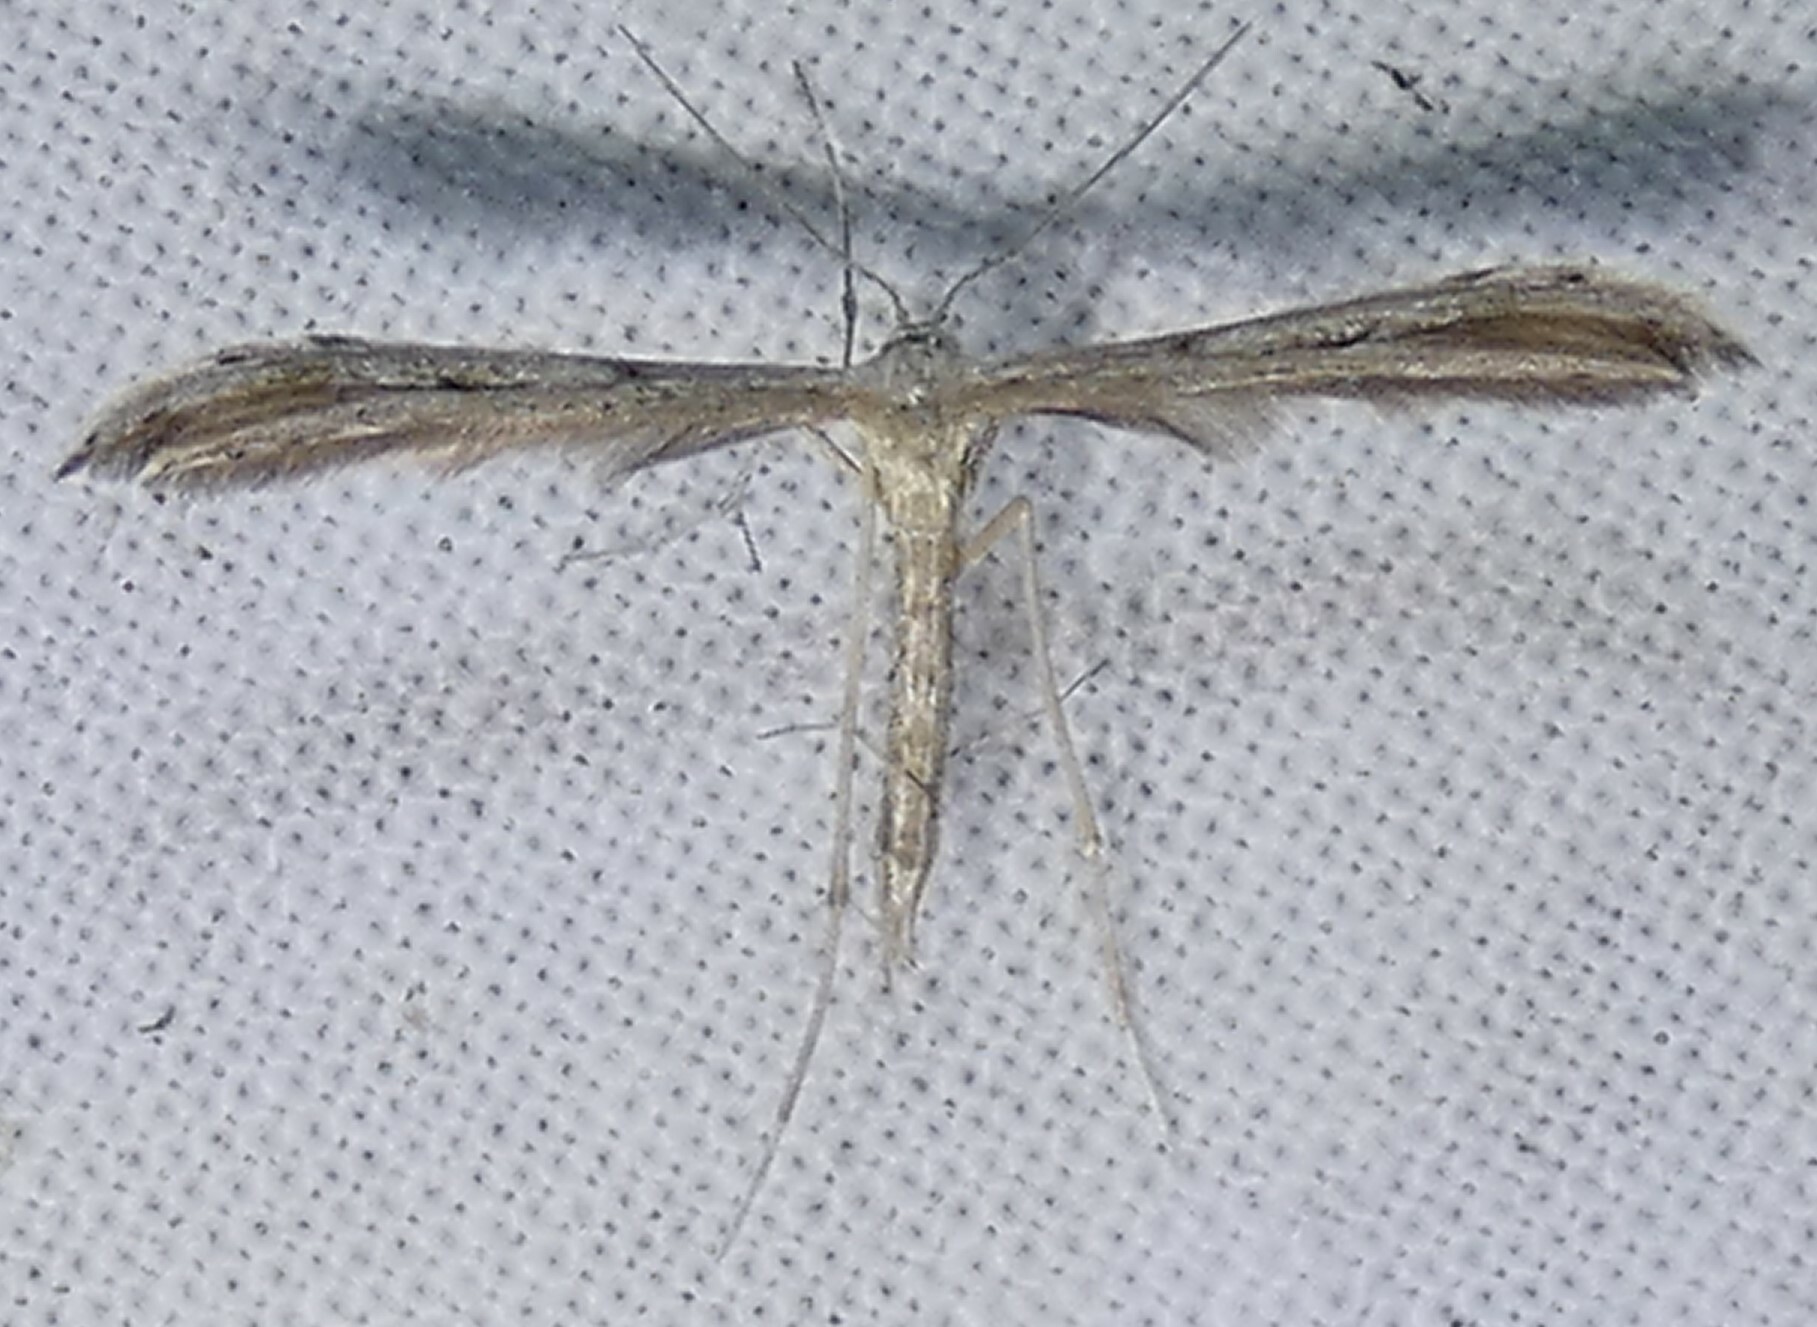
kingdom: Animalia
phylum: Arthropoda
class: Insecta
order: Lepidoptera
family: Pterophoridae
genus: Pselnophorus
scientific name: Pselnophorus belfragei
